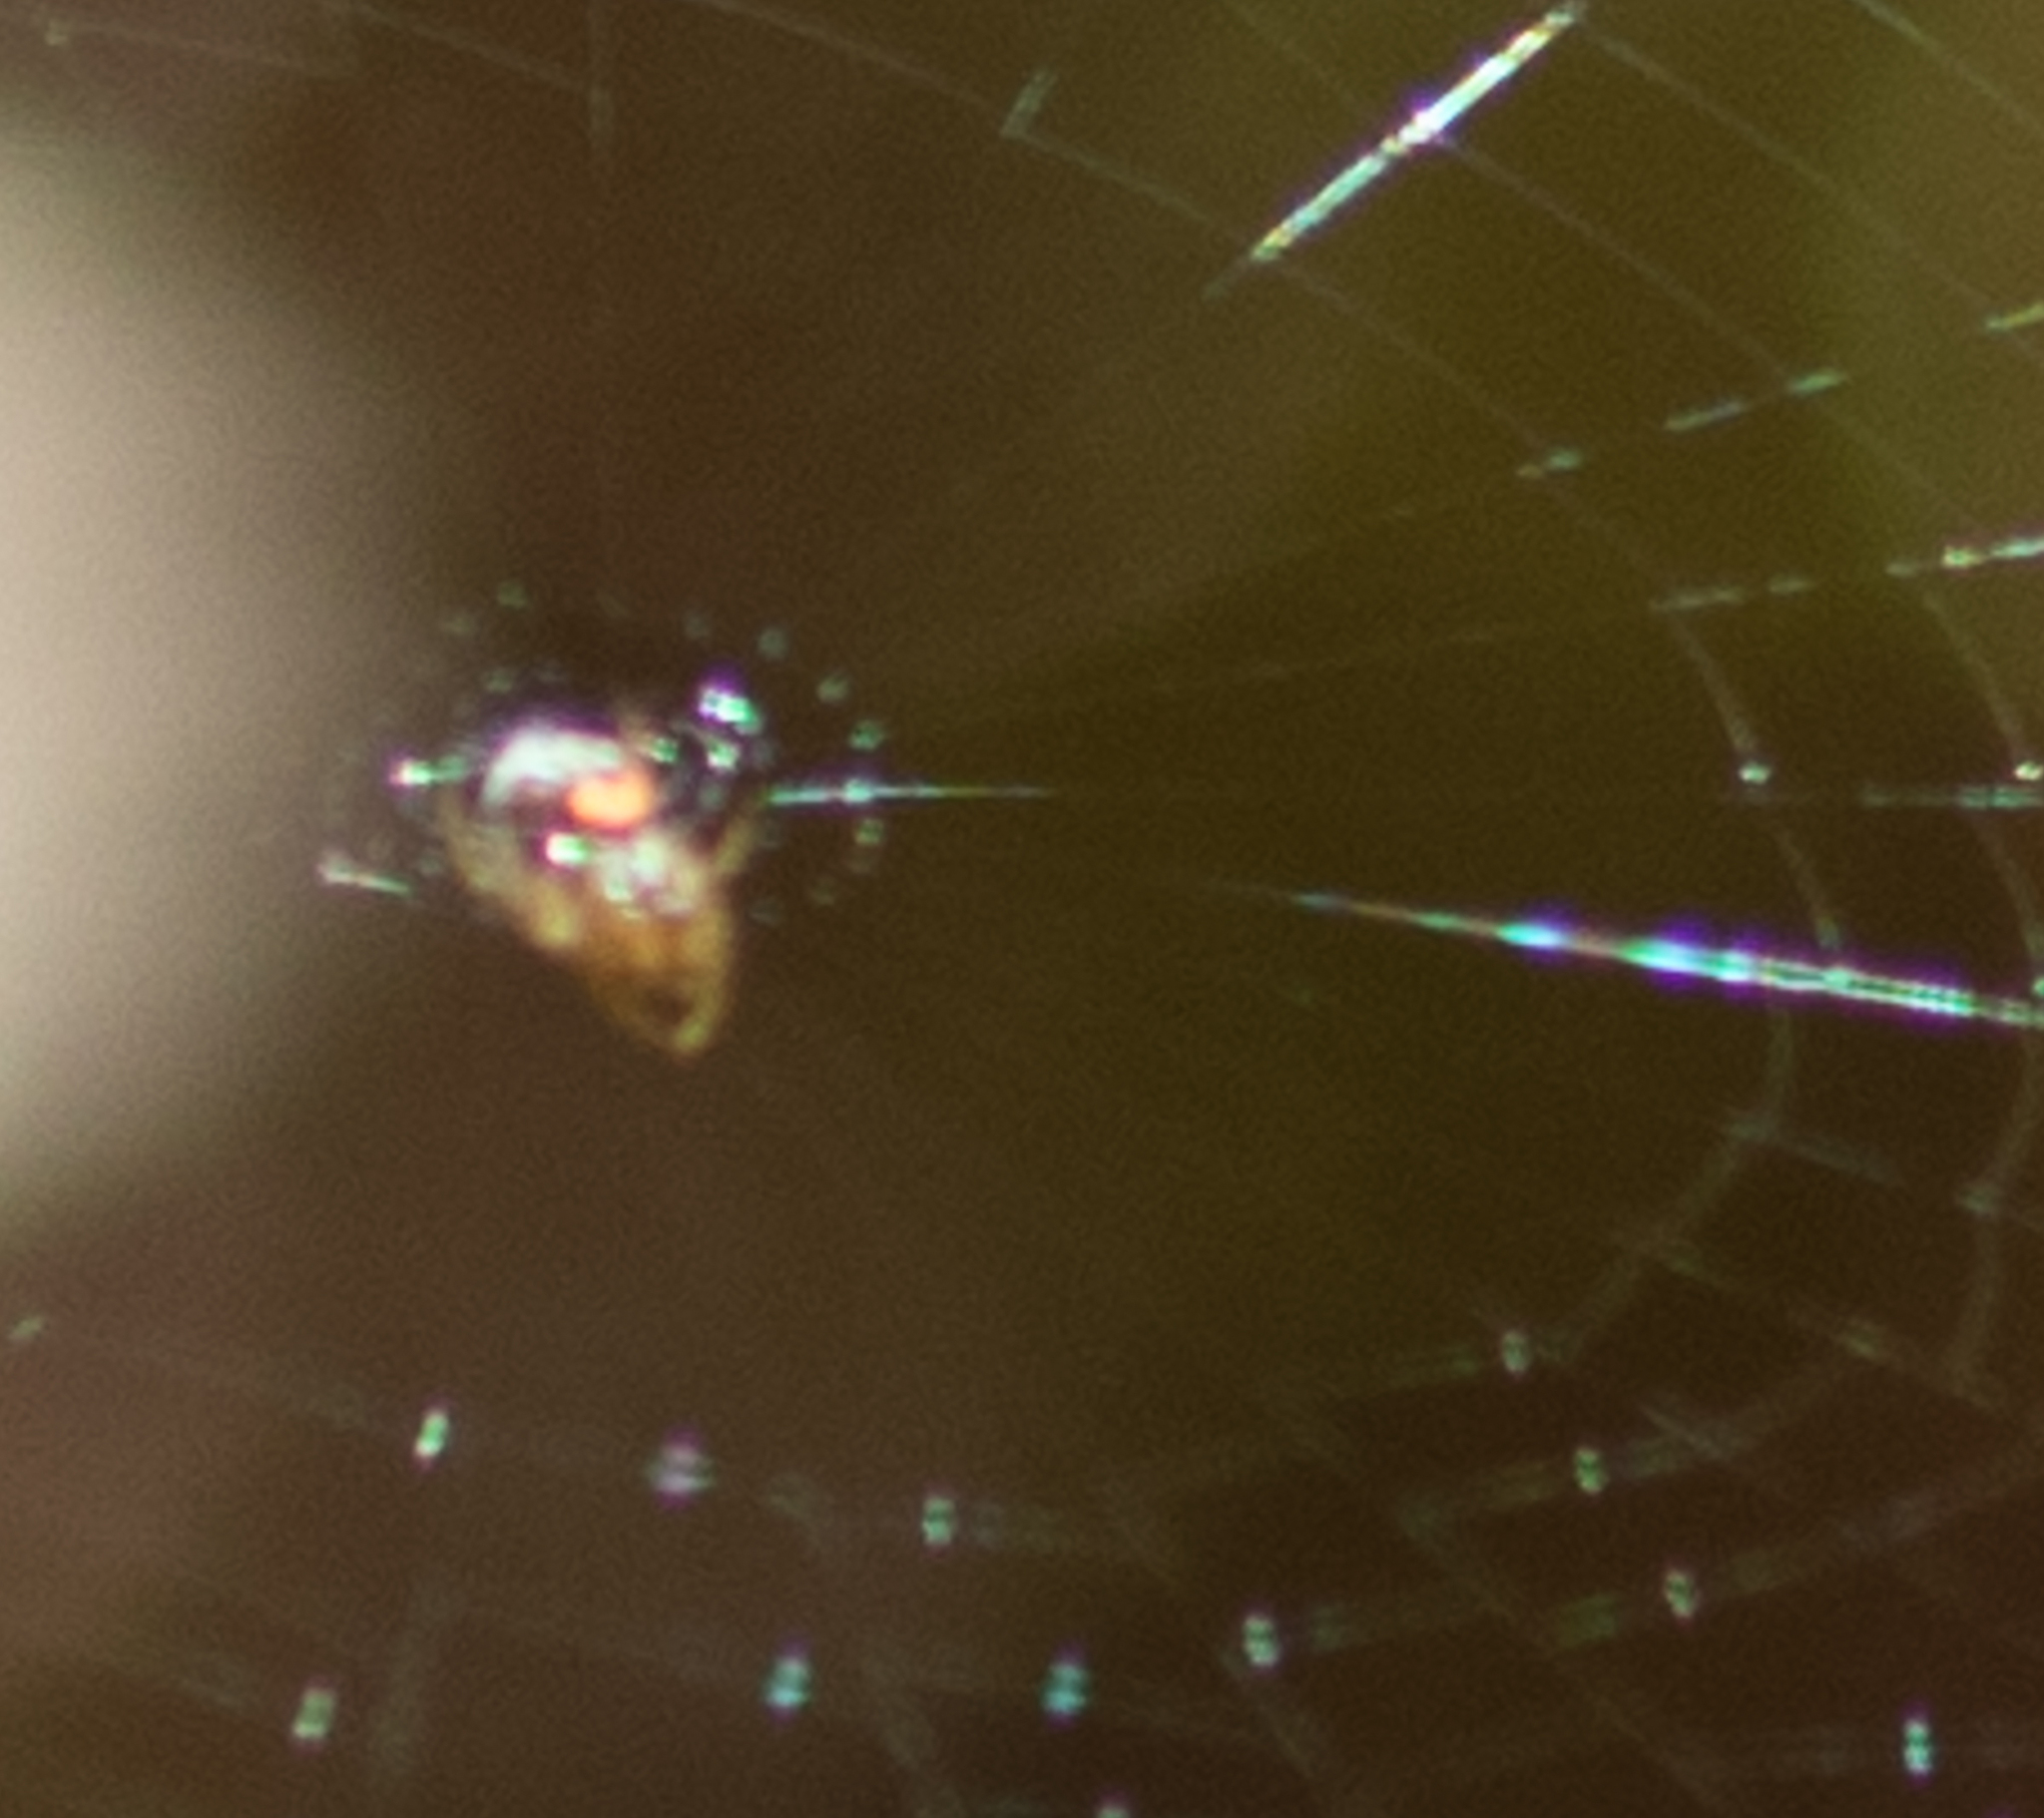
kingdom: Animalia
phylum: Arthropoda
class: Arachnida
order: Araneae
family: Tetragnathidae
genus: Leucauge
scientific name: Leucauge venusta
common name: Longjawed orb weavers
